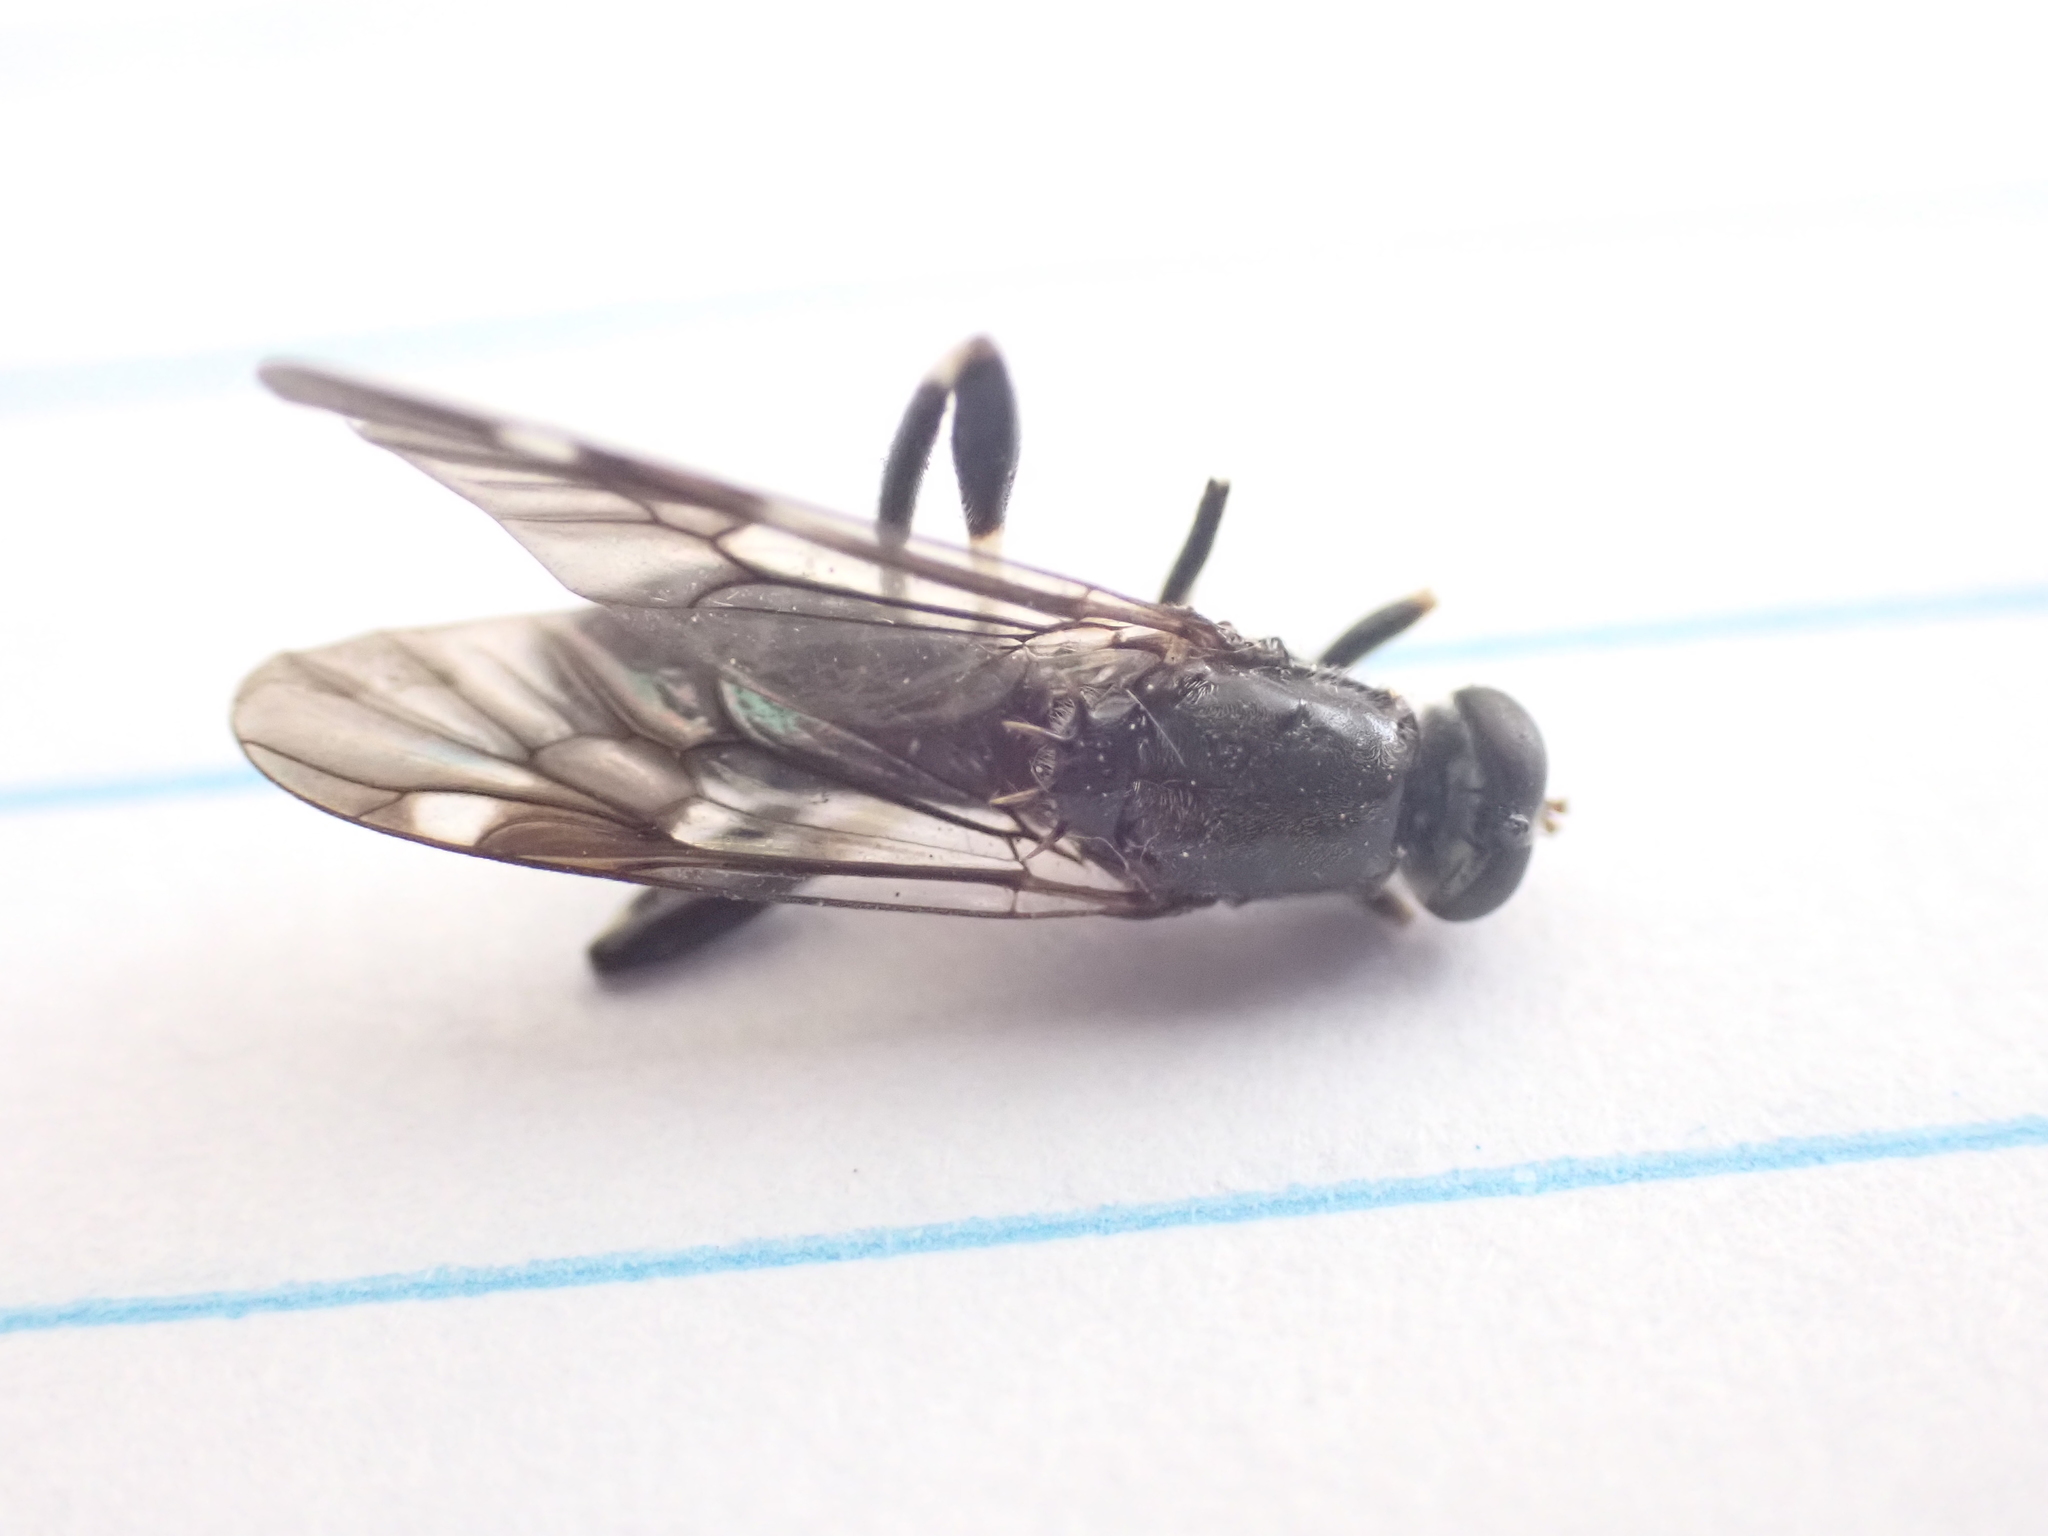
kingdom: Animalia
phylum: Arthropoda
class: Insecta
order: Diptera
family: Stratiomyidae
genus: Exaireta
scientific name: Exaireta spinigera
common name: Blue soldier fly
